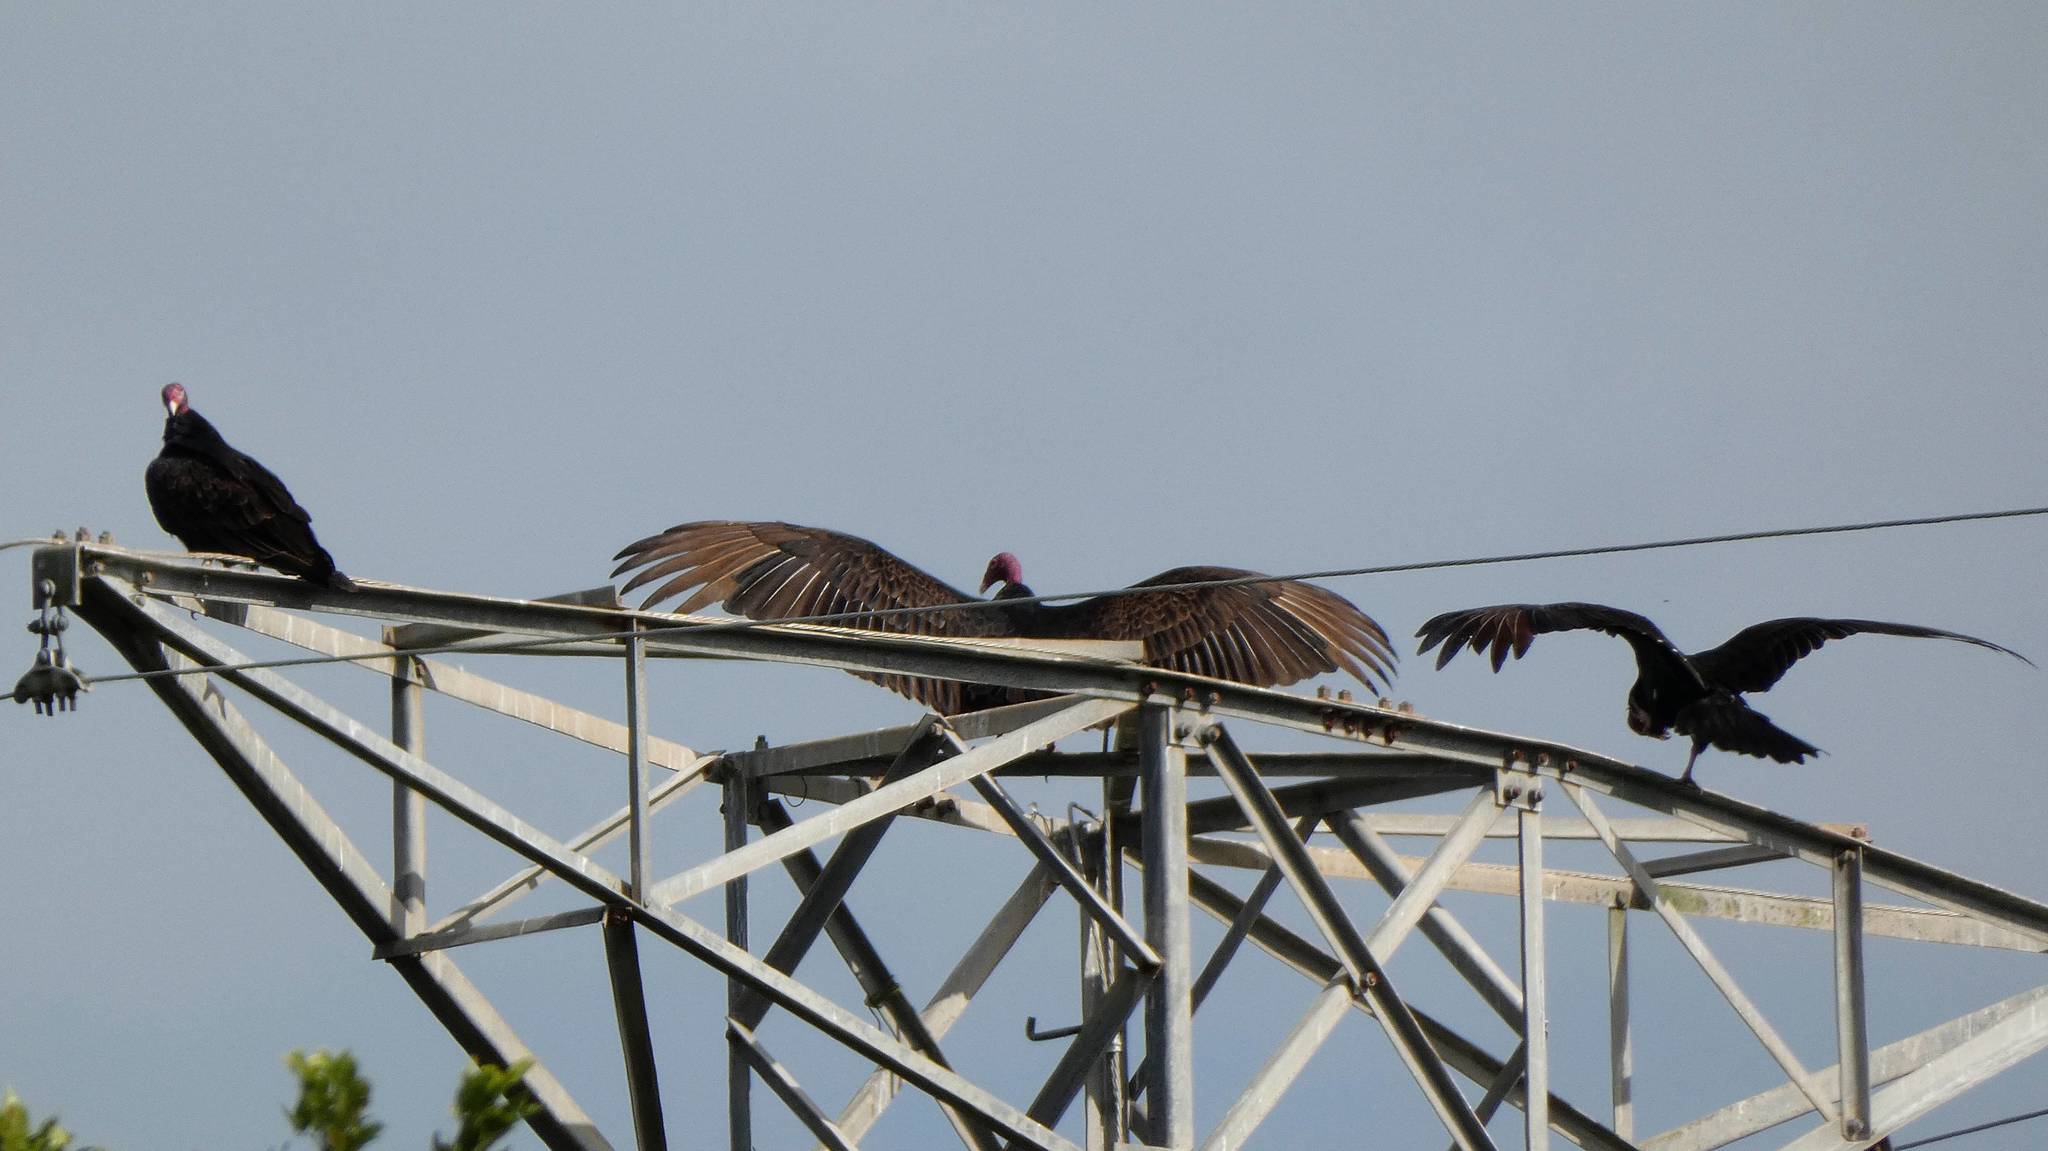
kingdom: Animalia
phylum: Chordata
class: Aves
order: Accipitriformes
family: Cathartidae
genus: Cathartes
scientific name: Cathartes aura
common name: Turkey vulture
